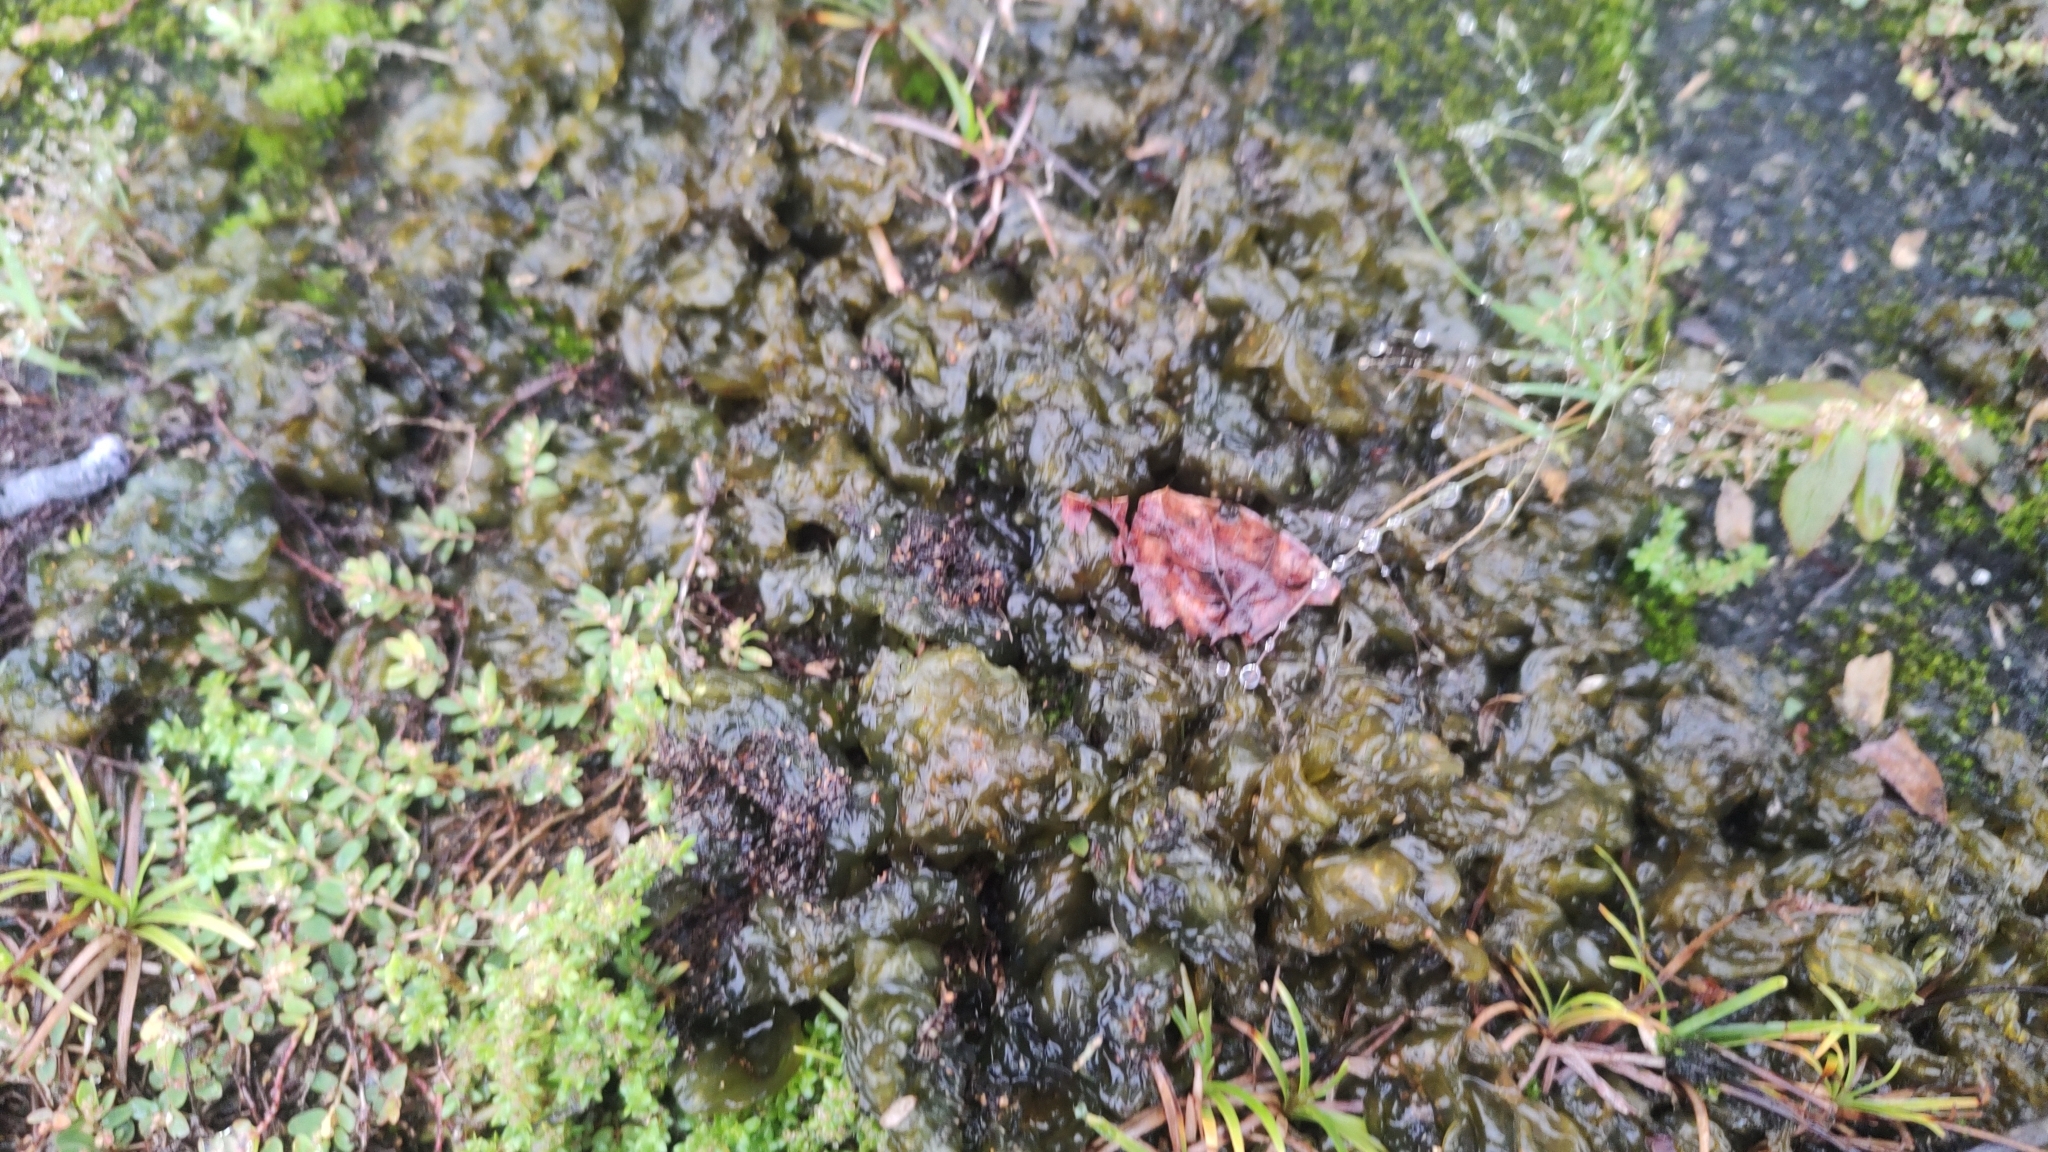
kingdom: Bacteria
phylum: Cyanobacteria
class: Cyanobacteriia
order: Cyanobacteriales
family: Nostocaceae
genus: Nostoc
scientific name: Nostoc commune
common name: Star jelly
